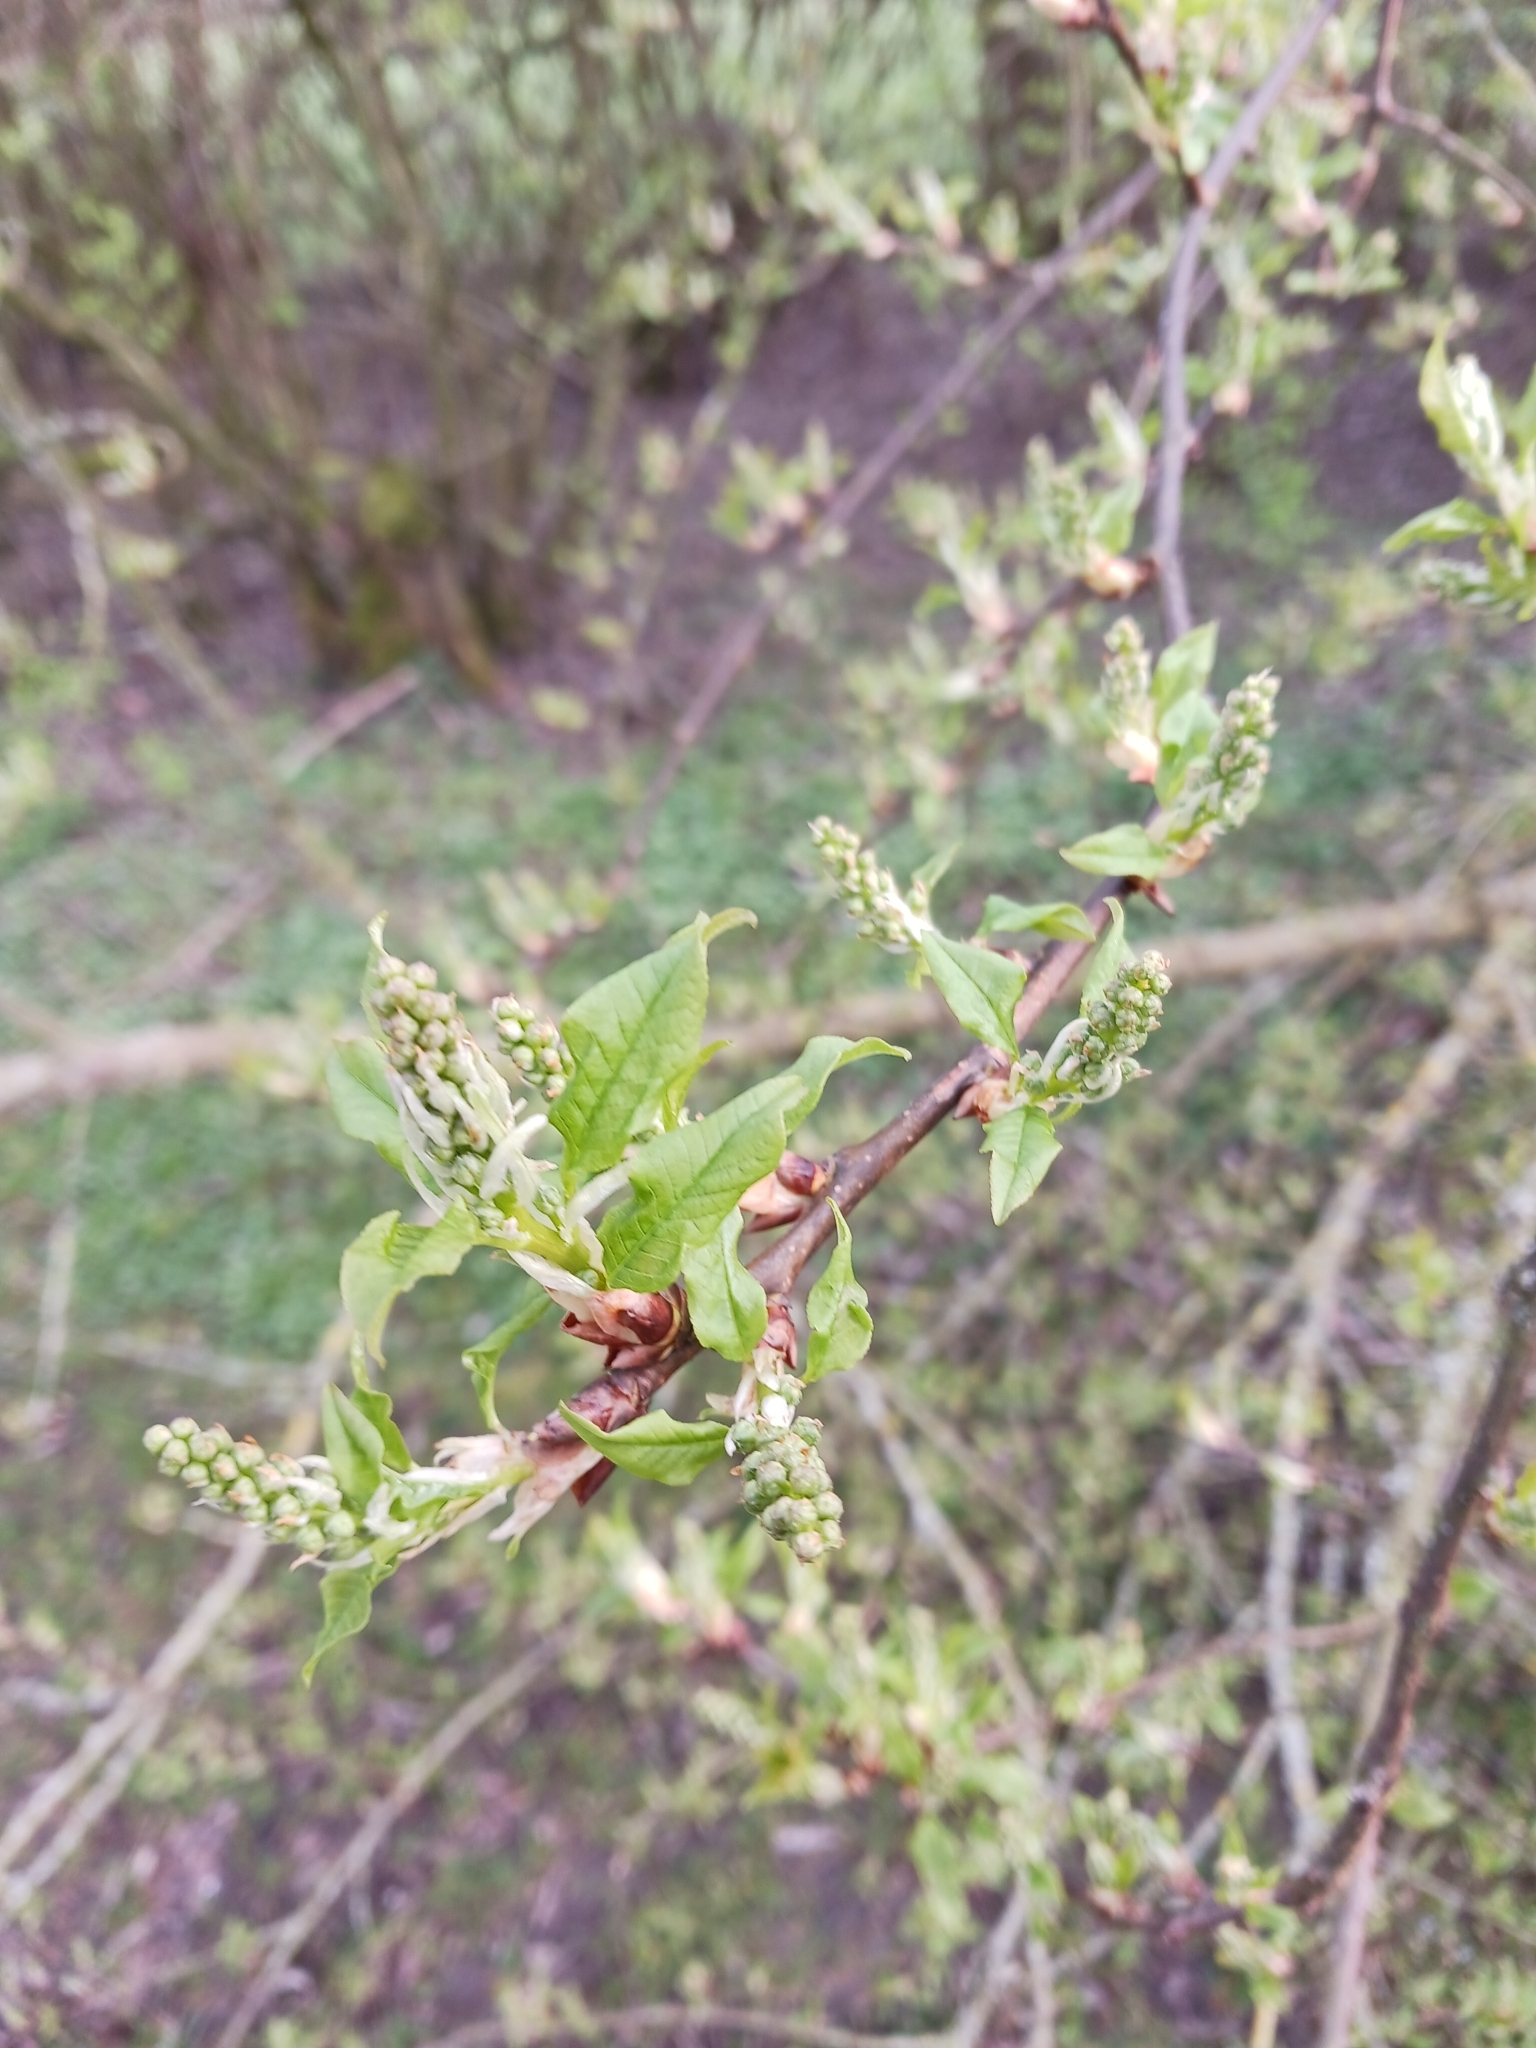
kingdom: Plantae
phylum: Tracheophyta
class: Magnoliopsida
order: Rosales
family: Rosaceae
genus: Prunus
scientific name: Prunus padus
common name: Bird cherry
